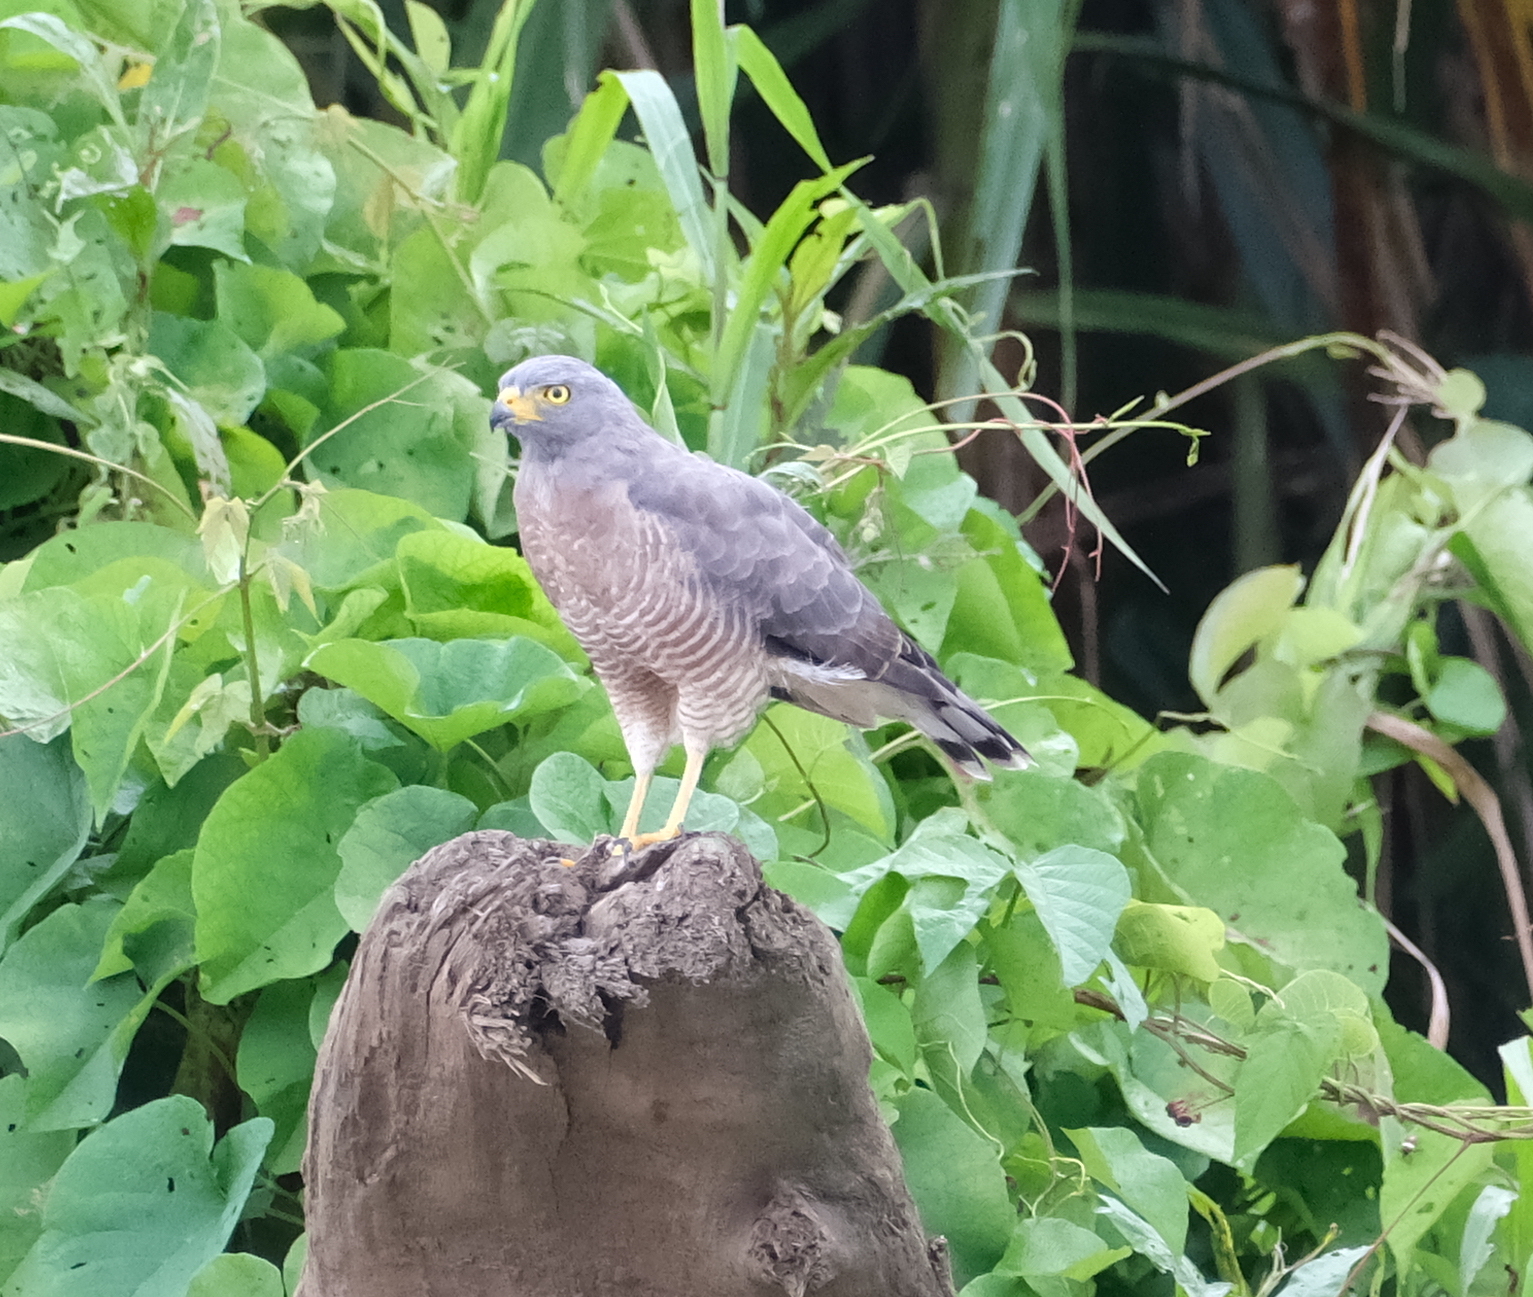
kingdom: Animalia
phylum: Chordata
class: Aves
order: Accipitriformes
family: Accipitridae
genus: Rupornis
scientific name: Rupornis magnirostris
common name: Roadside hawk
